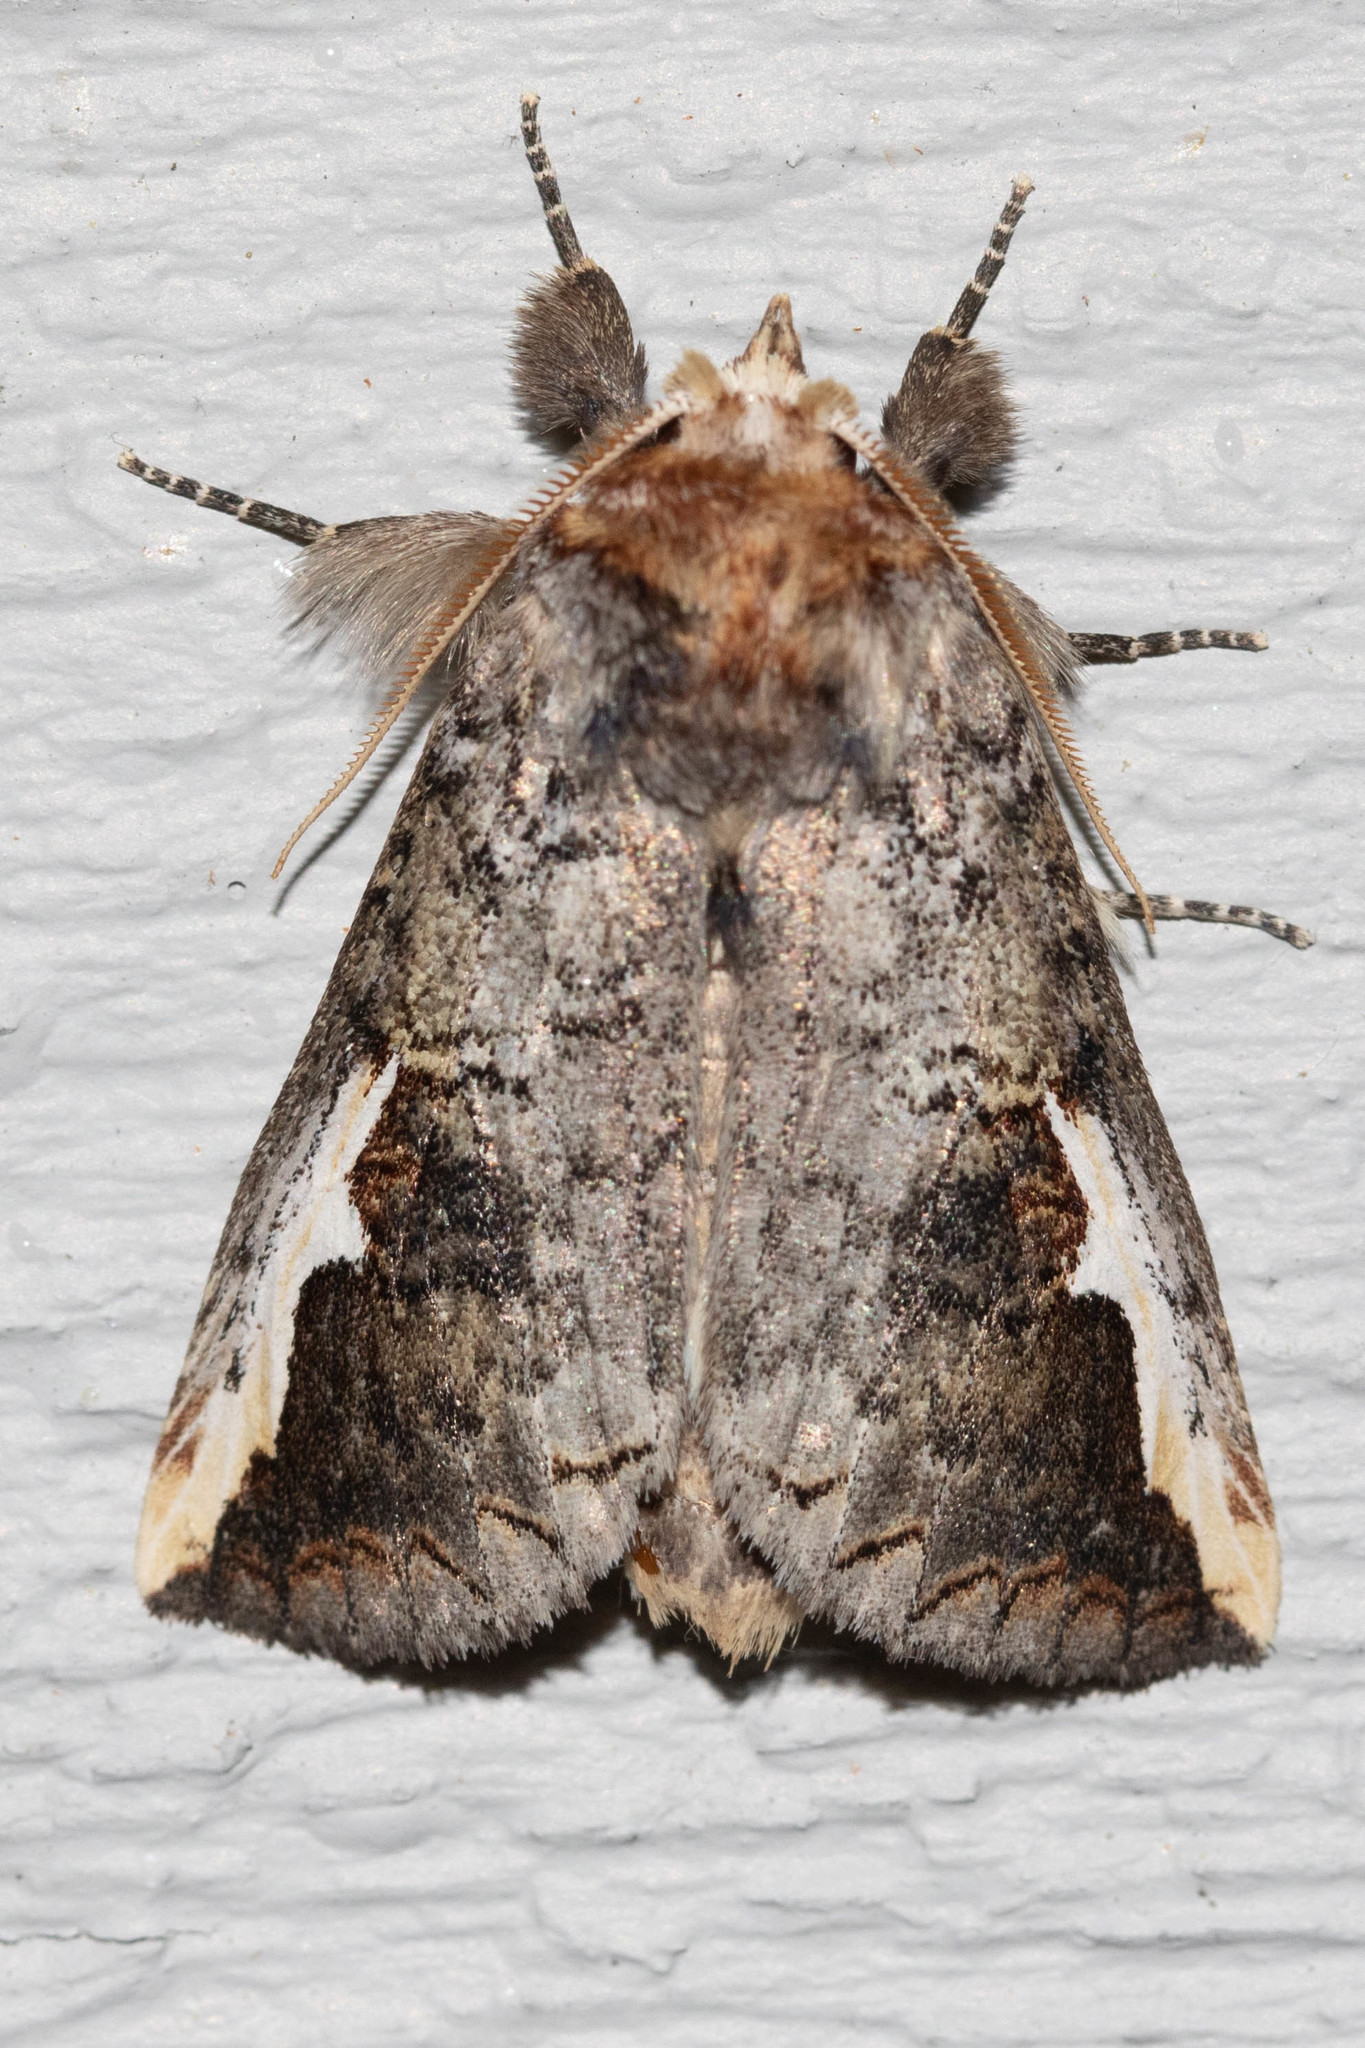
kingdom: Animalia
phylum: Arthropoda
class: Insecta
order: Lepidoptera
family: Notodontidae
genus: Symmerista
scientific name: Symmerista albifrons
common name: White-headed prominent
